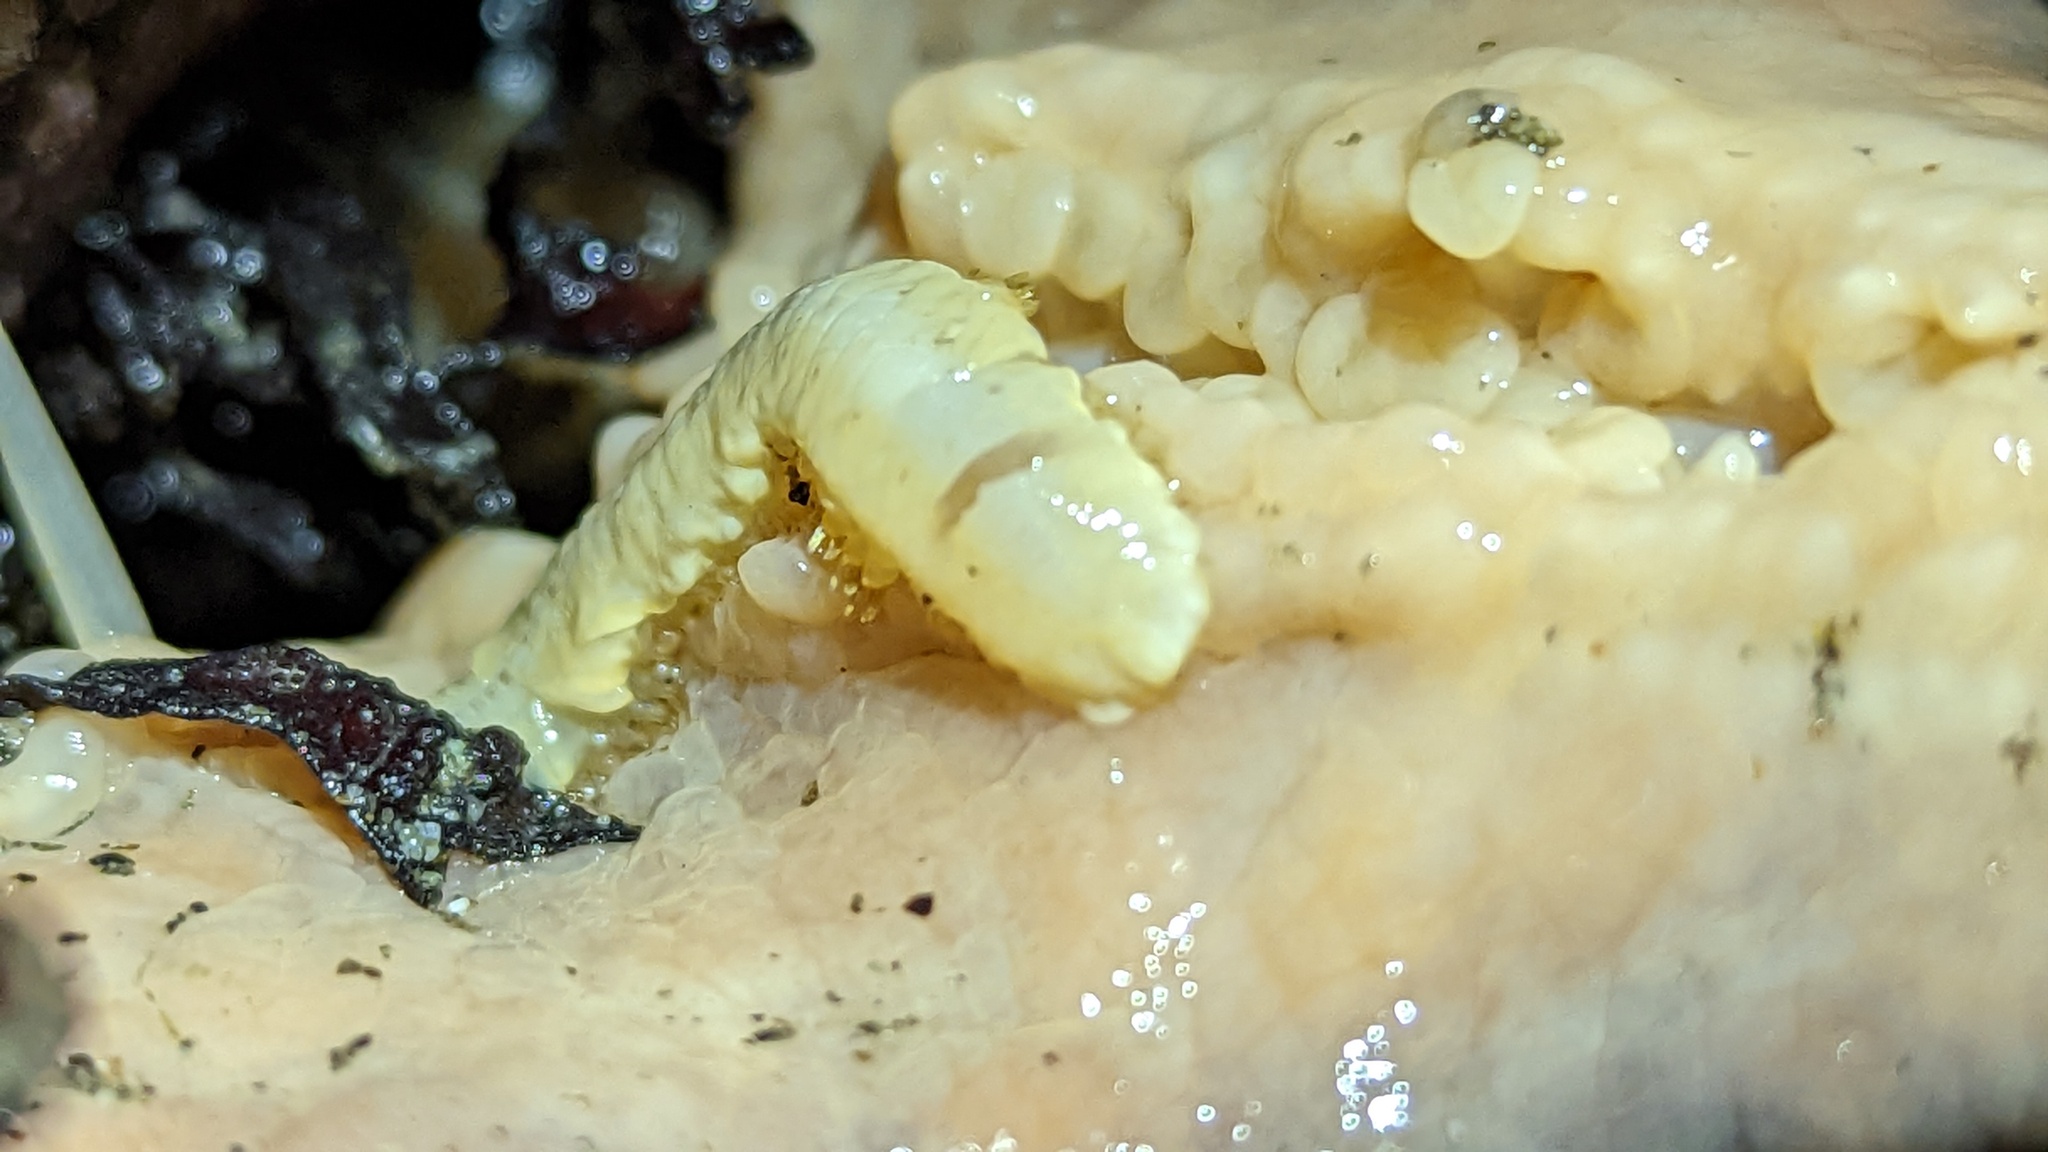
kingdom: Animalia
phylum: Annelida
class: Polychaeta
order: Phyllodocida
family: Polynoidae
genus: Arctonoe
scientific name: Arctonoe vittata
